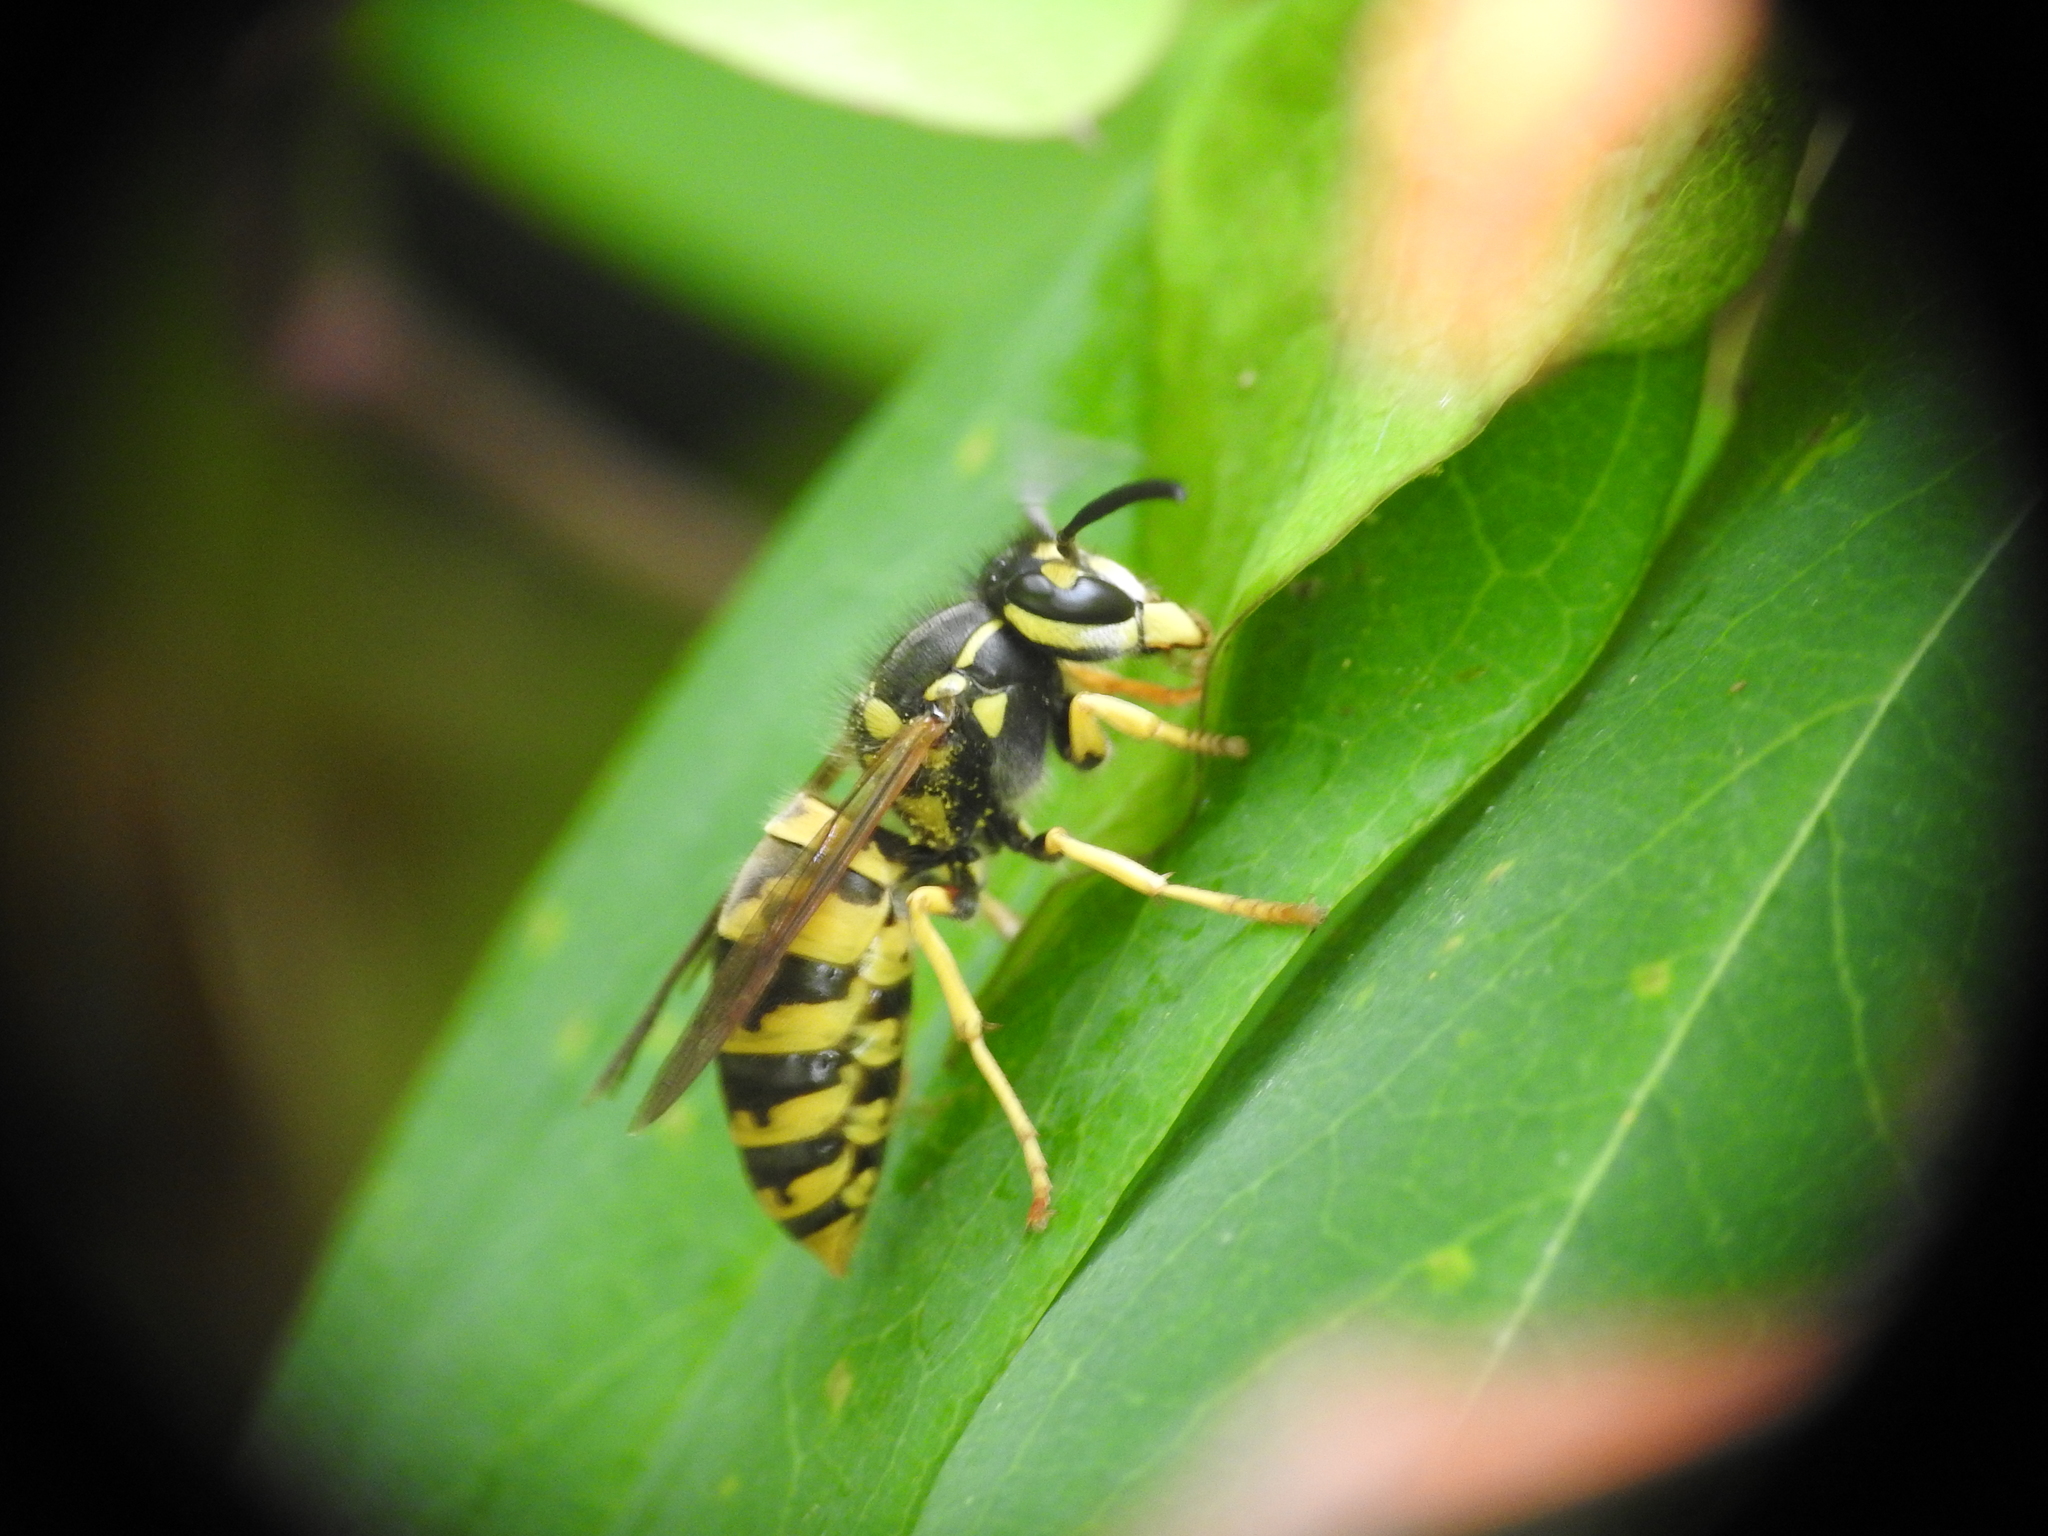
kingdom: Animalia
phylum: Arthropoda
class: Insecta
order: Hymenoptera
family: Vespidae
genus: Vespula
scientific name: Vespula germanica
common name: German wasp
